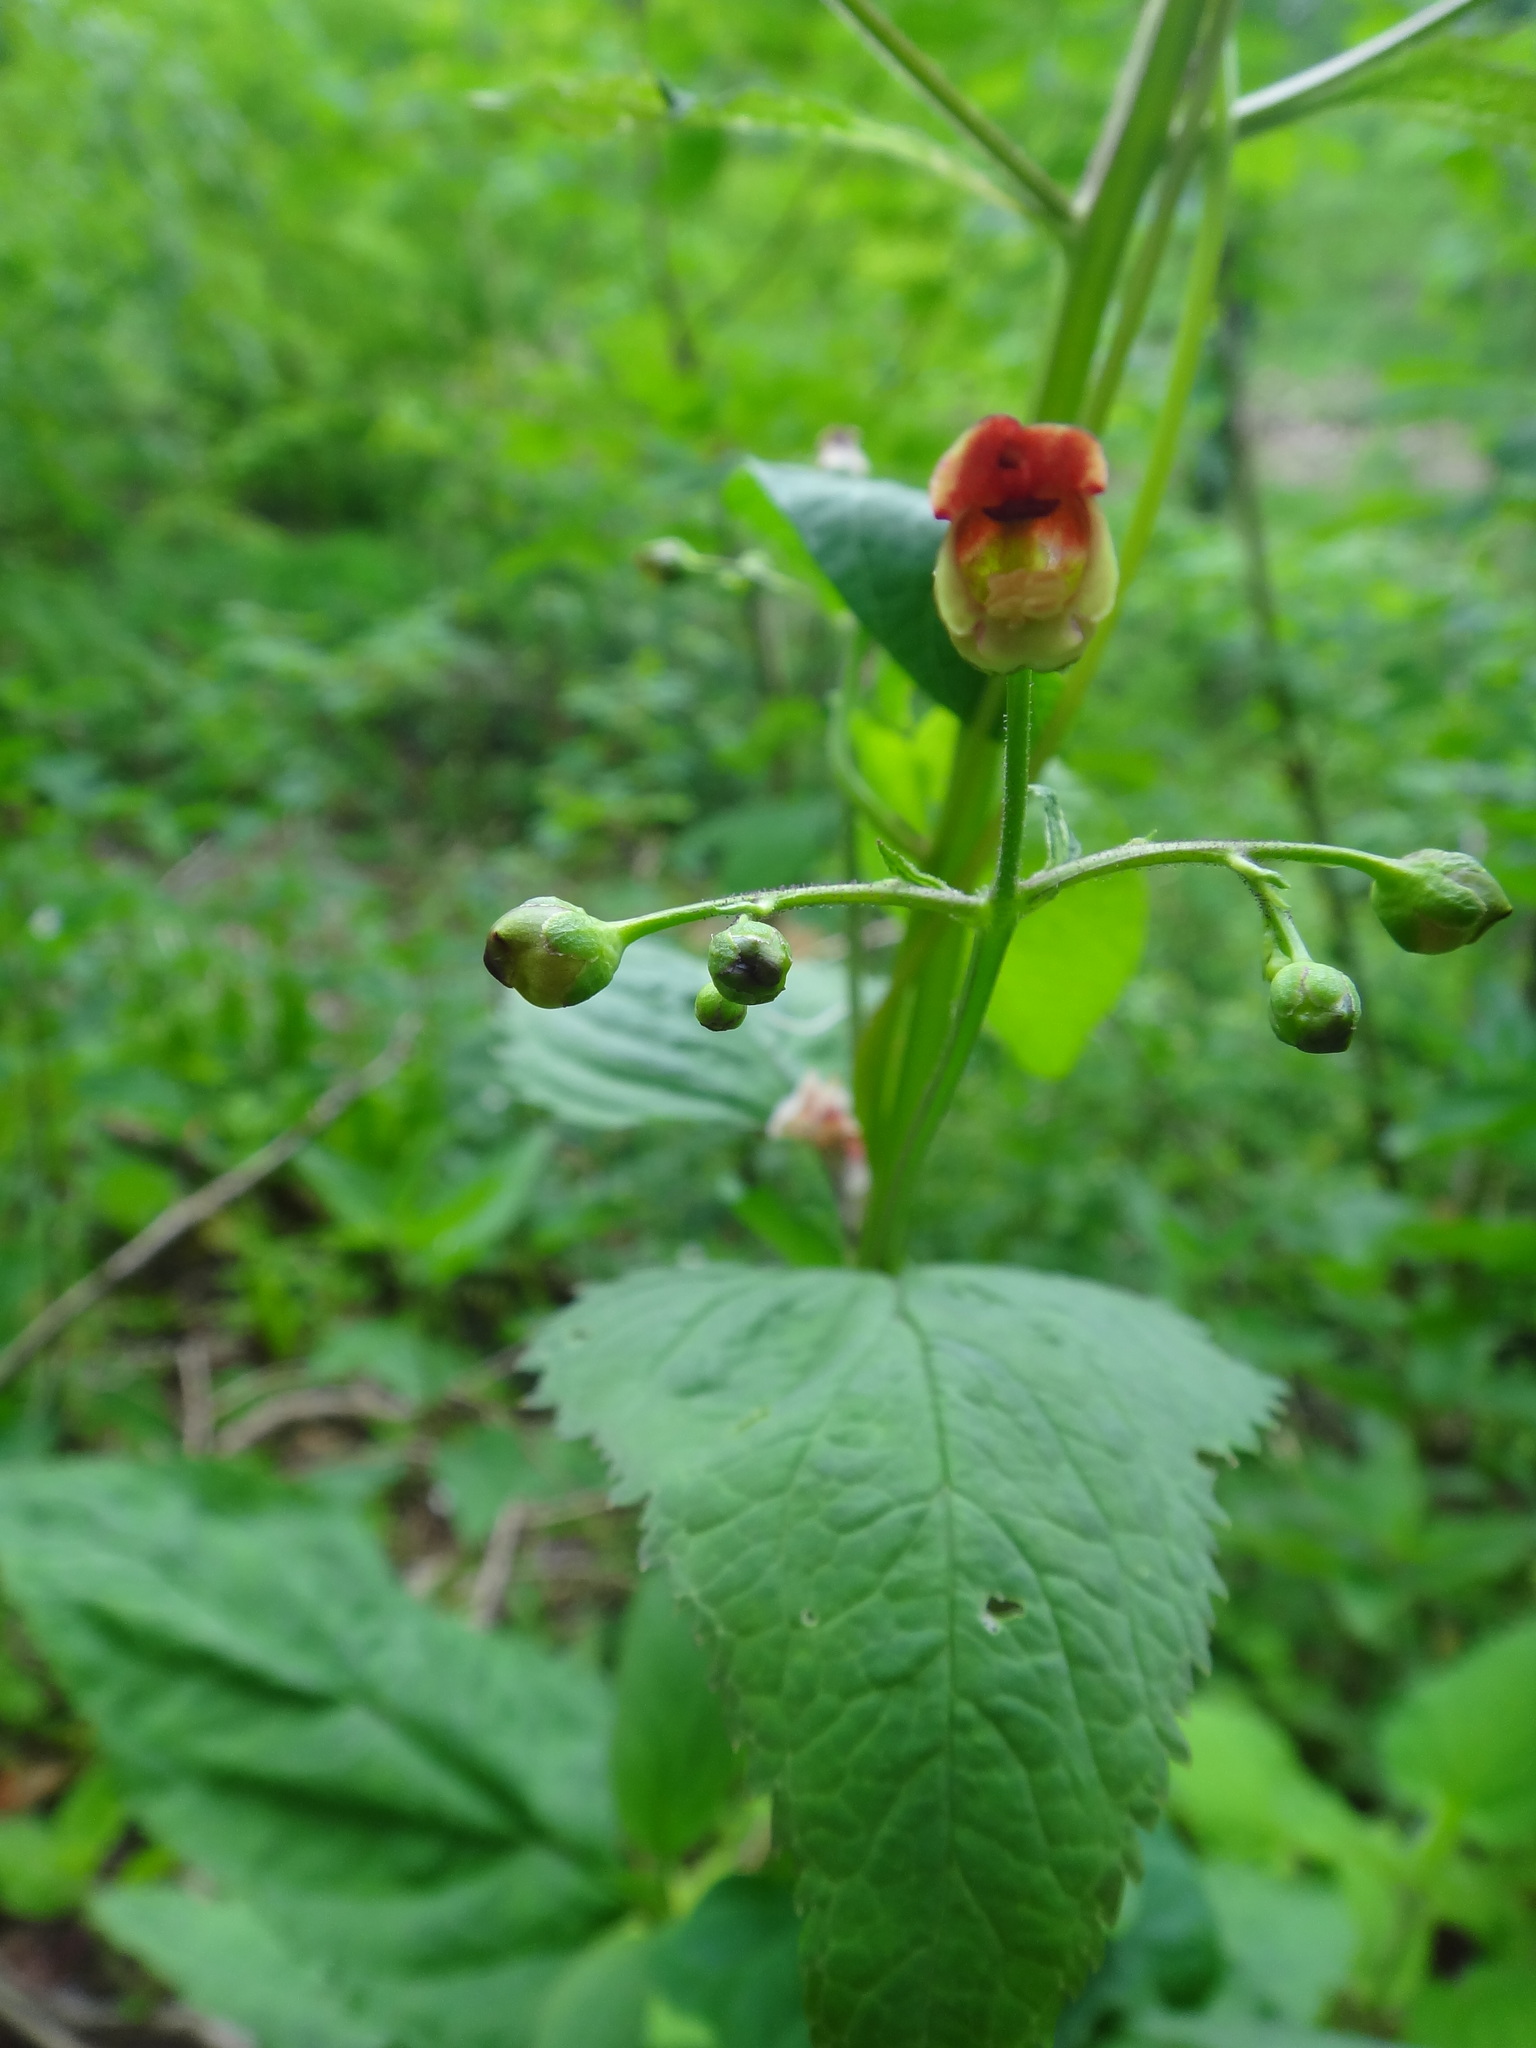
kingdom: Plantae
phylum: Tracheophyta
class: Magnoliopsida
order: Lamiales
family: Scrophulariaceae
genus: Scrophularia
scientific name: Scrophularia nodosa
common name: Common figwort
